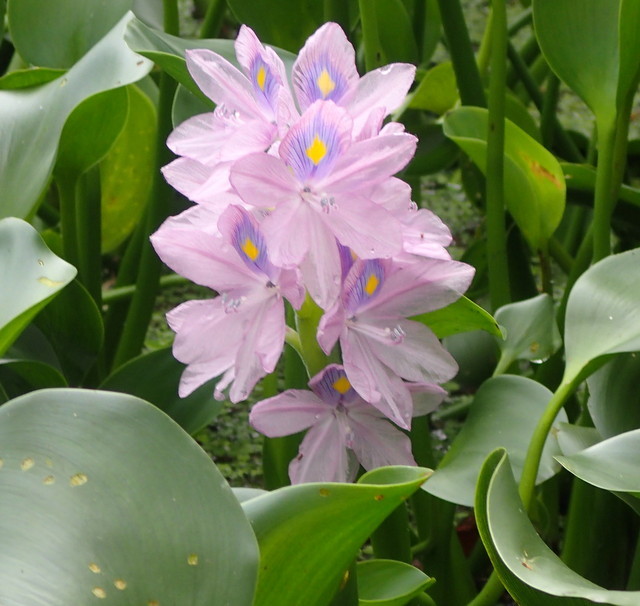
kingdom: Plantae
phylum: Tracheophyta
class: Liliopsida
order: Commelinales
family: Pontederiaceae
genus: Pontederia
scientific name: Pontederia crassipes
